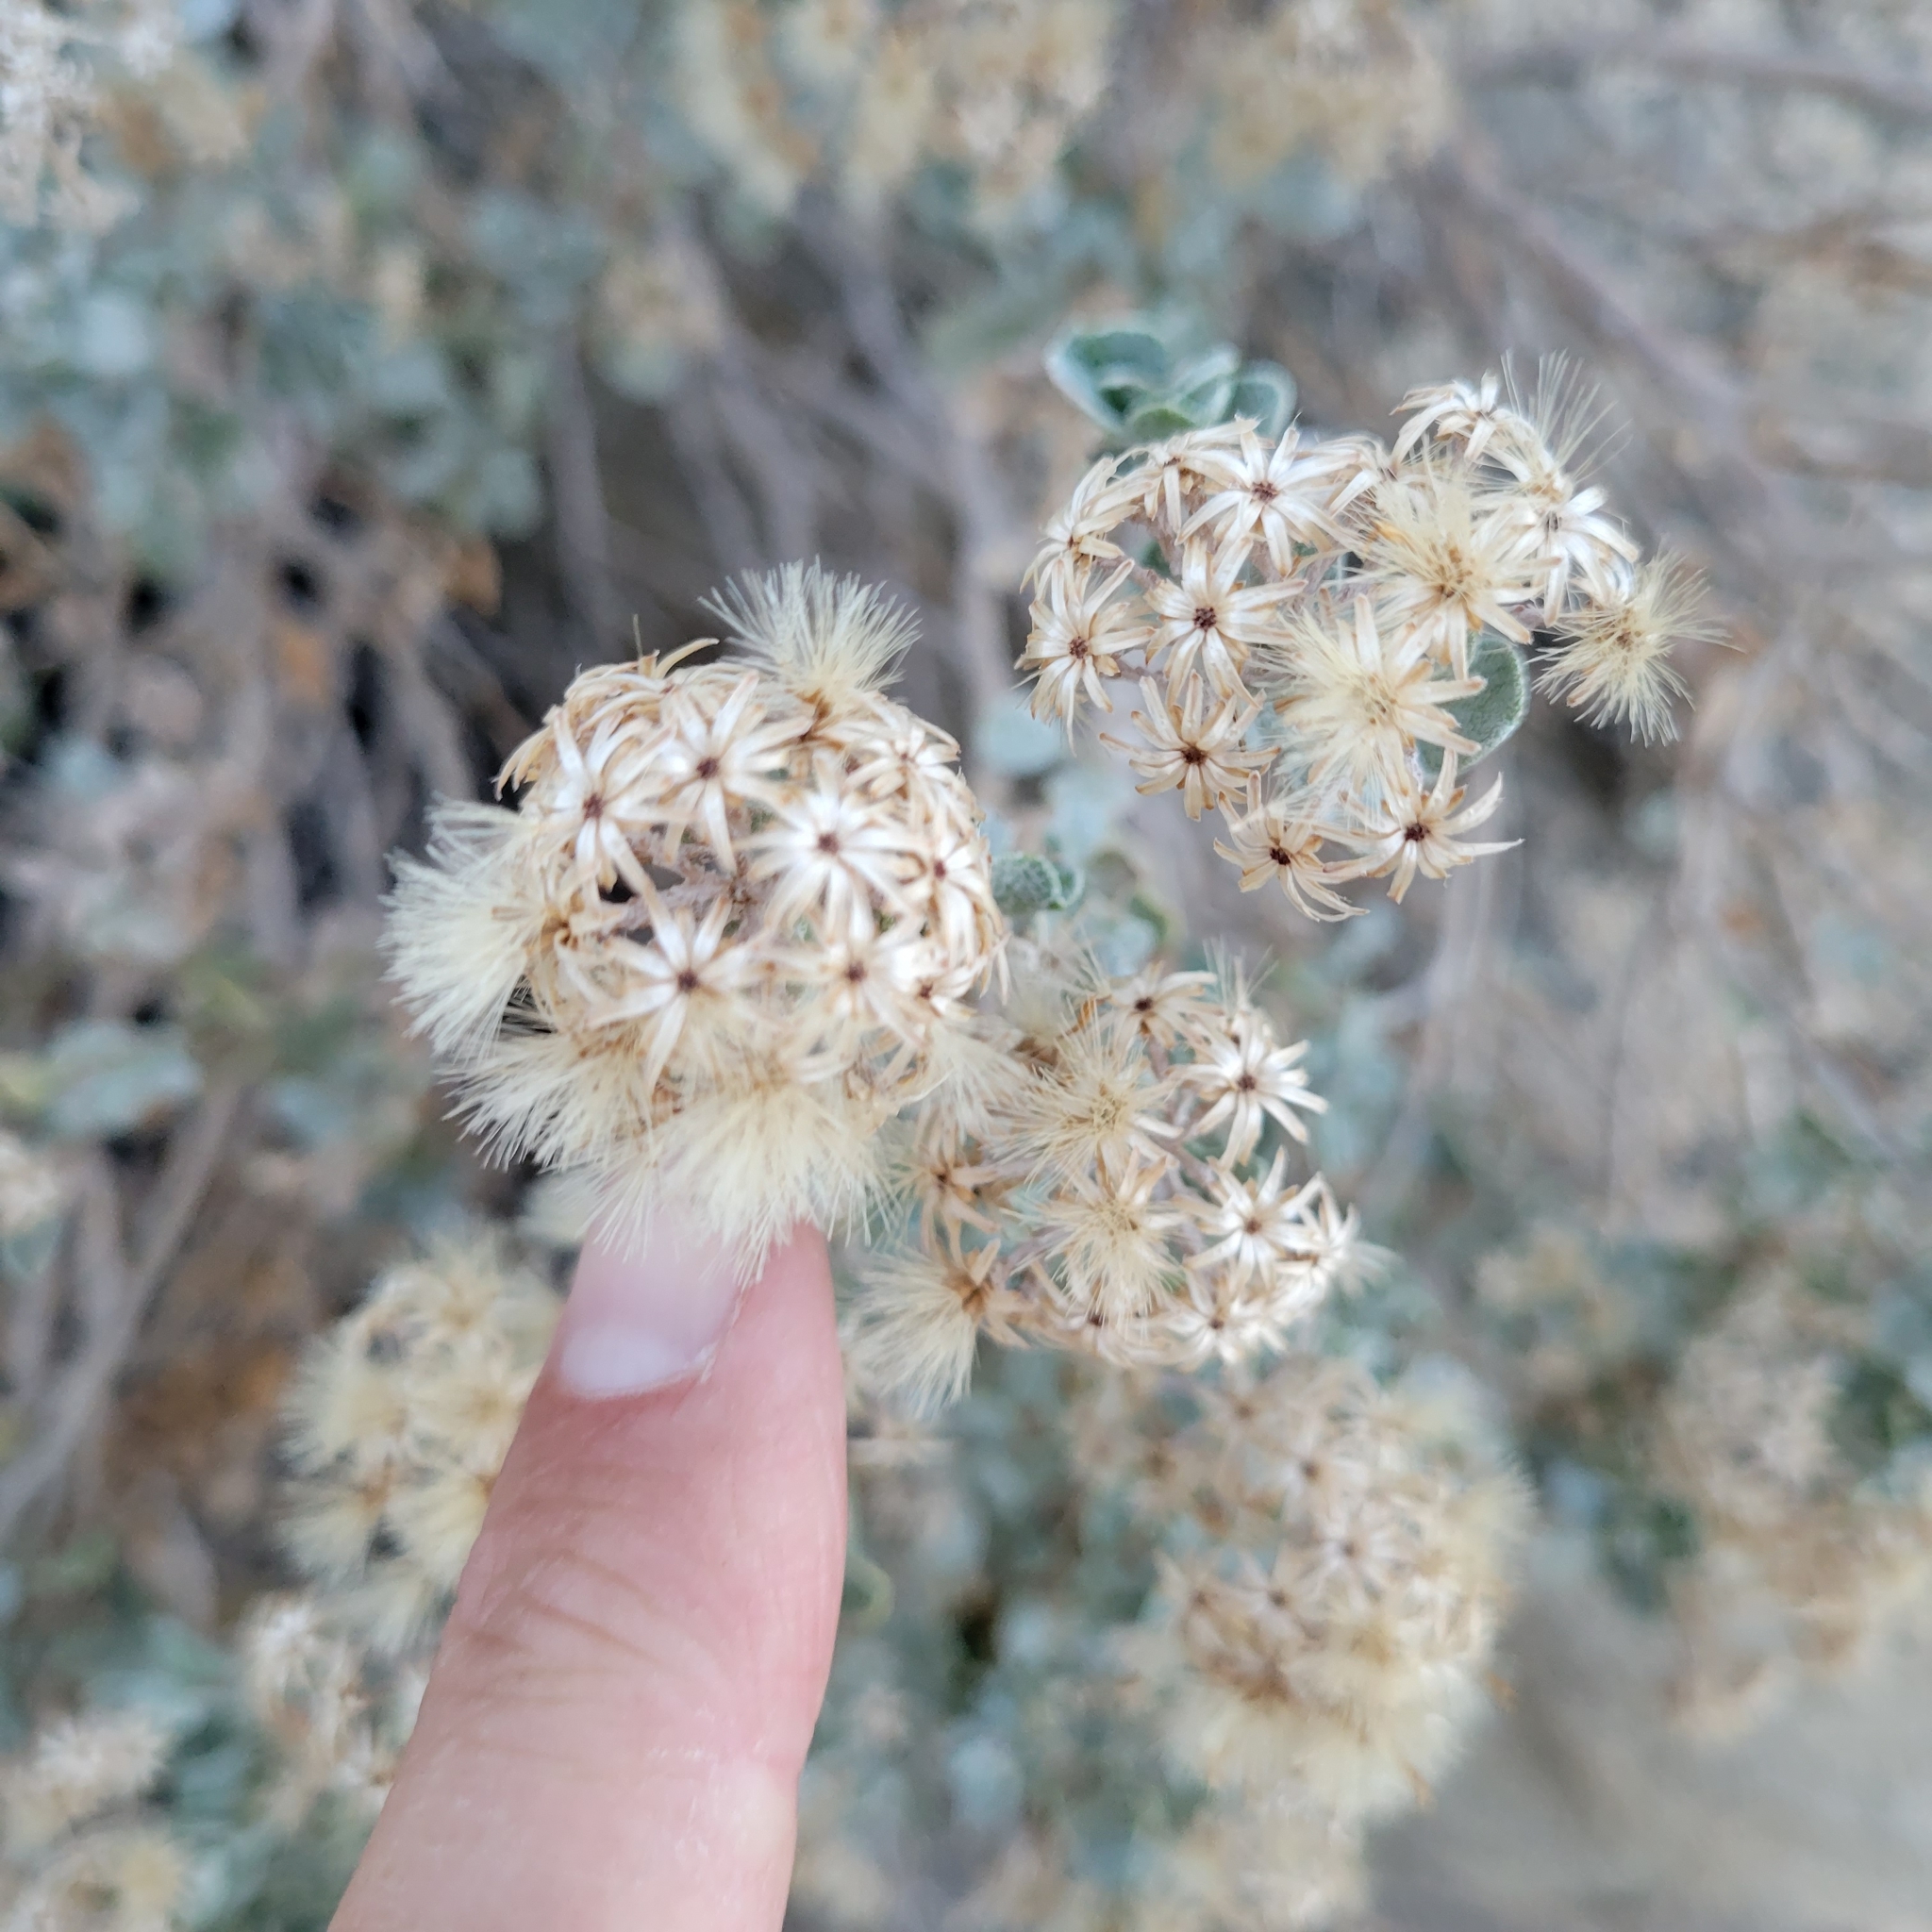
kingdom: Plantae
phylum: Tracheophyta
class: Magnoliopsida
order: Asterales
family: Asteraceae
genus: Ericameria
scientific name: Ericameria cuneata
